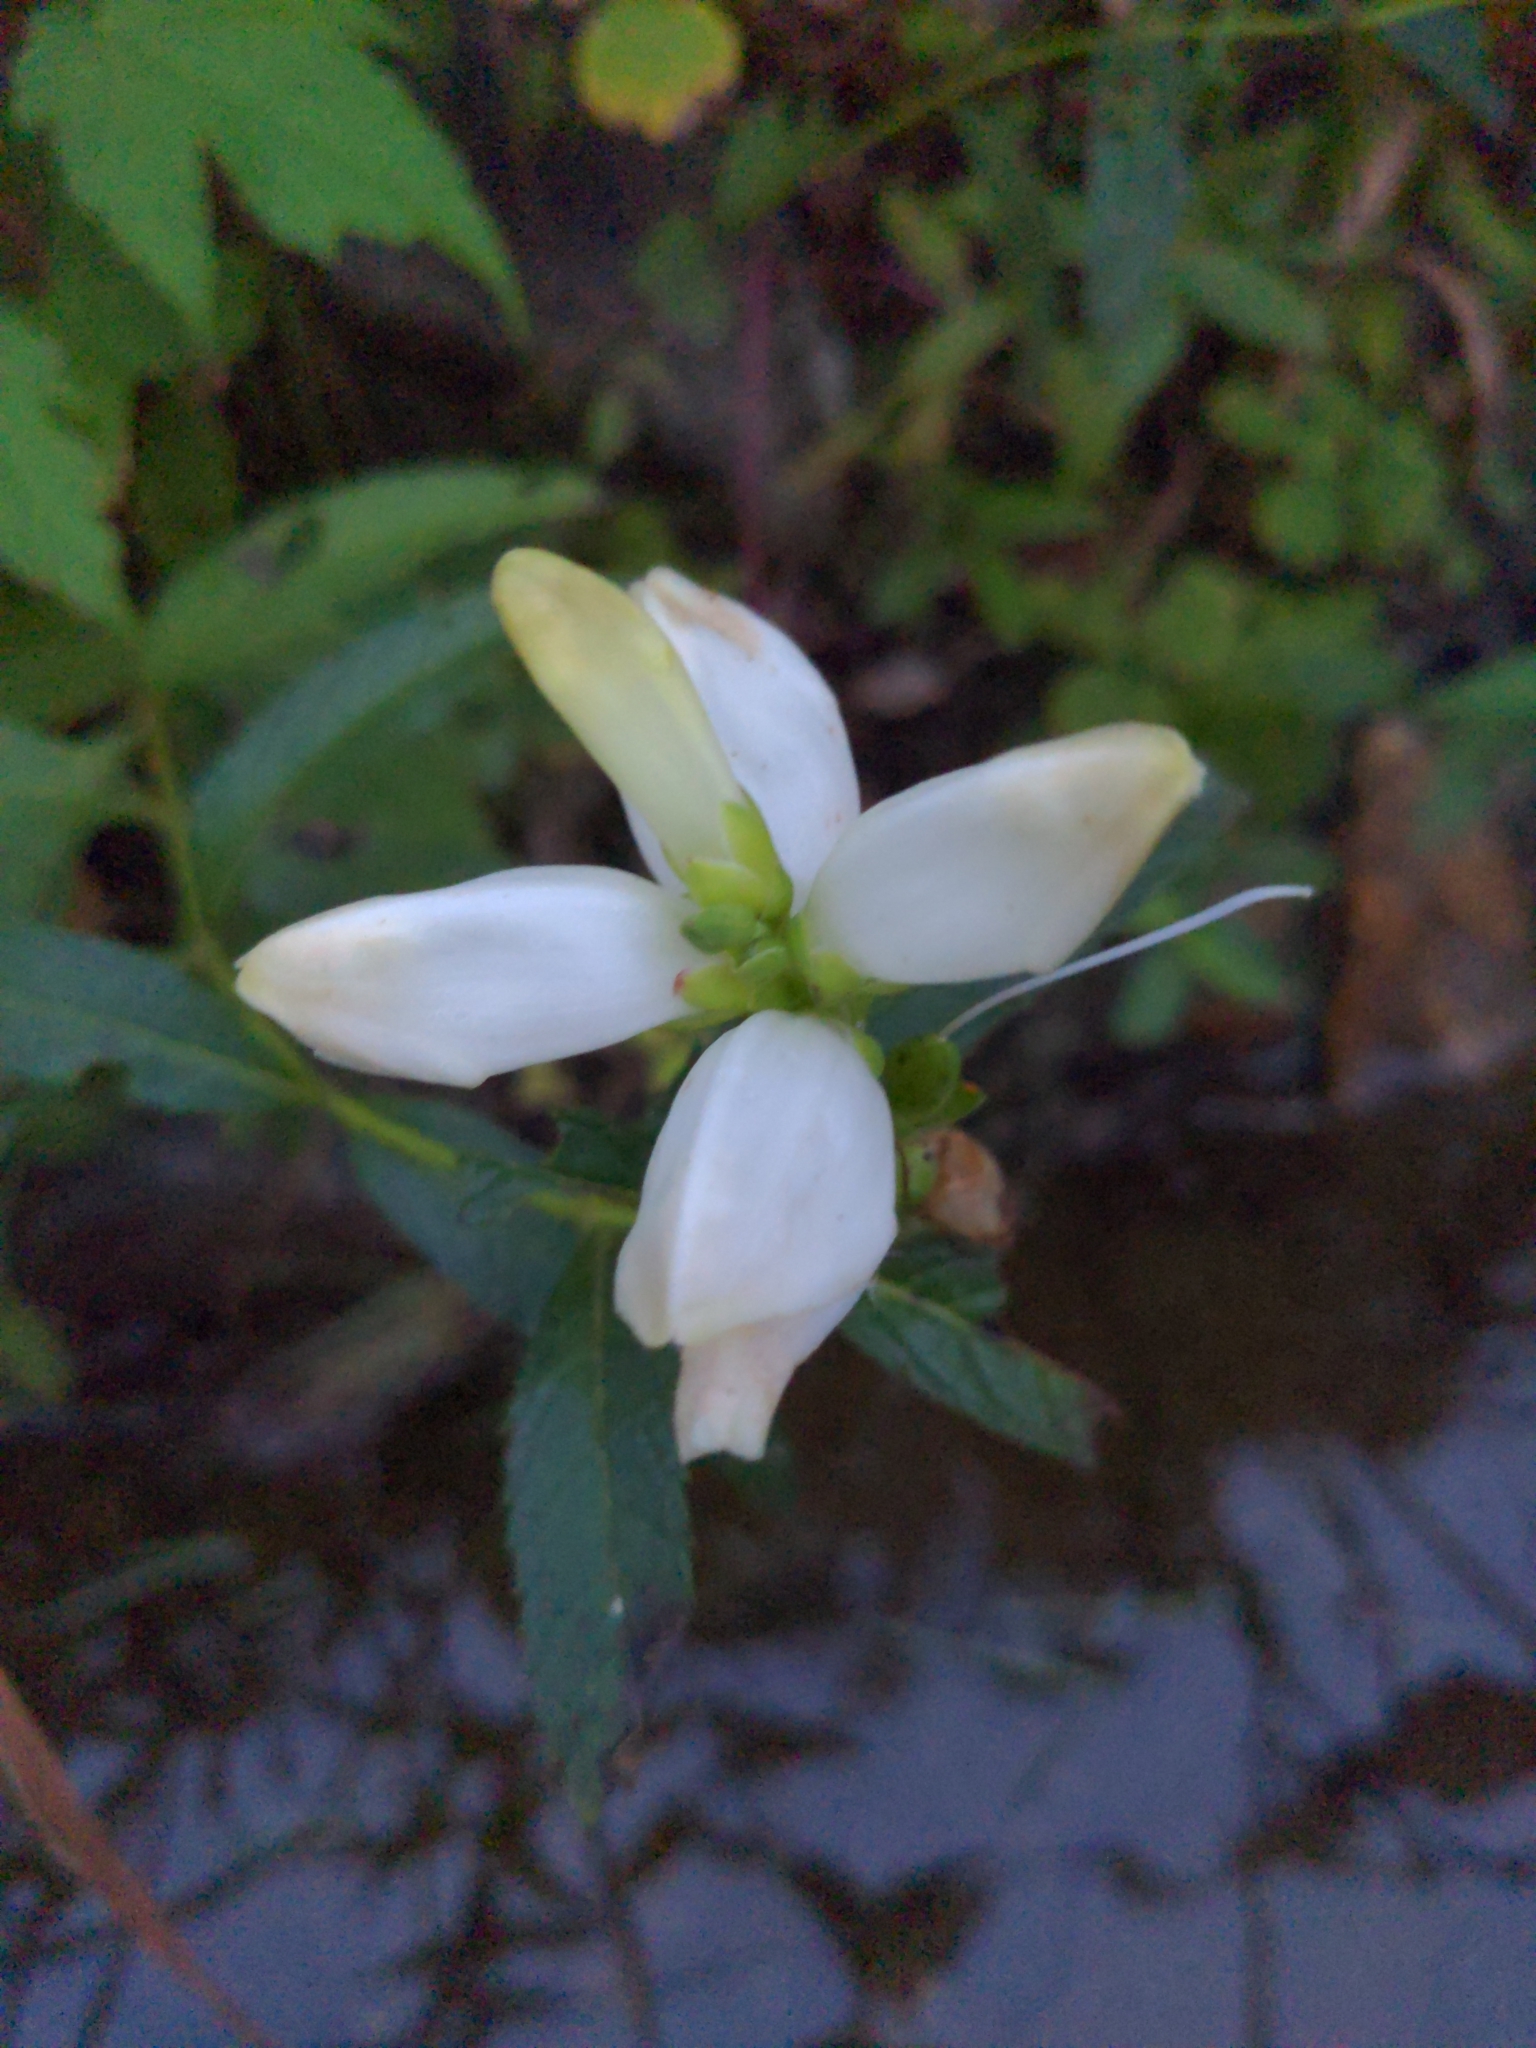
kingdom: Plantae
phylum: Tracheophyta
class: Magnoliopsida
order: Lamiales
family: Plantaginaceae
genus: Chelone
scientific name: Chelone glabra
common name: Snakehead
